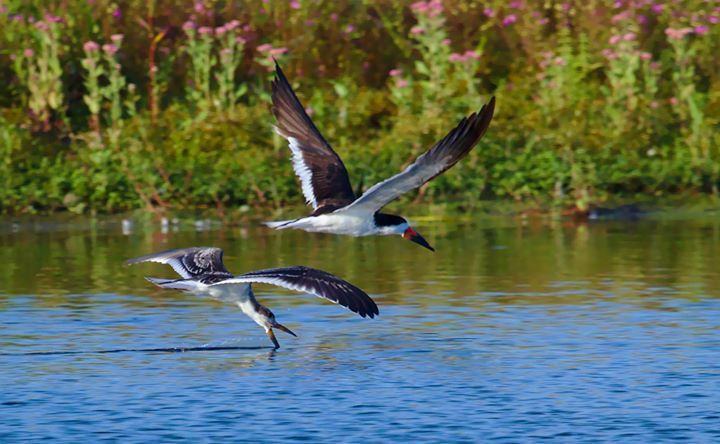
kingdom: Animalia
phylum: Chordata
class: Aves
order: Charadriiformes
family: Laridae
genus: Rynchops
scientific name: Rynchops niger
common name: Black skimmer
